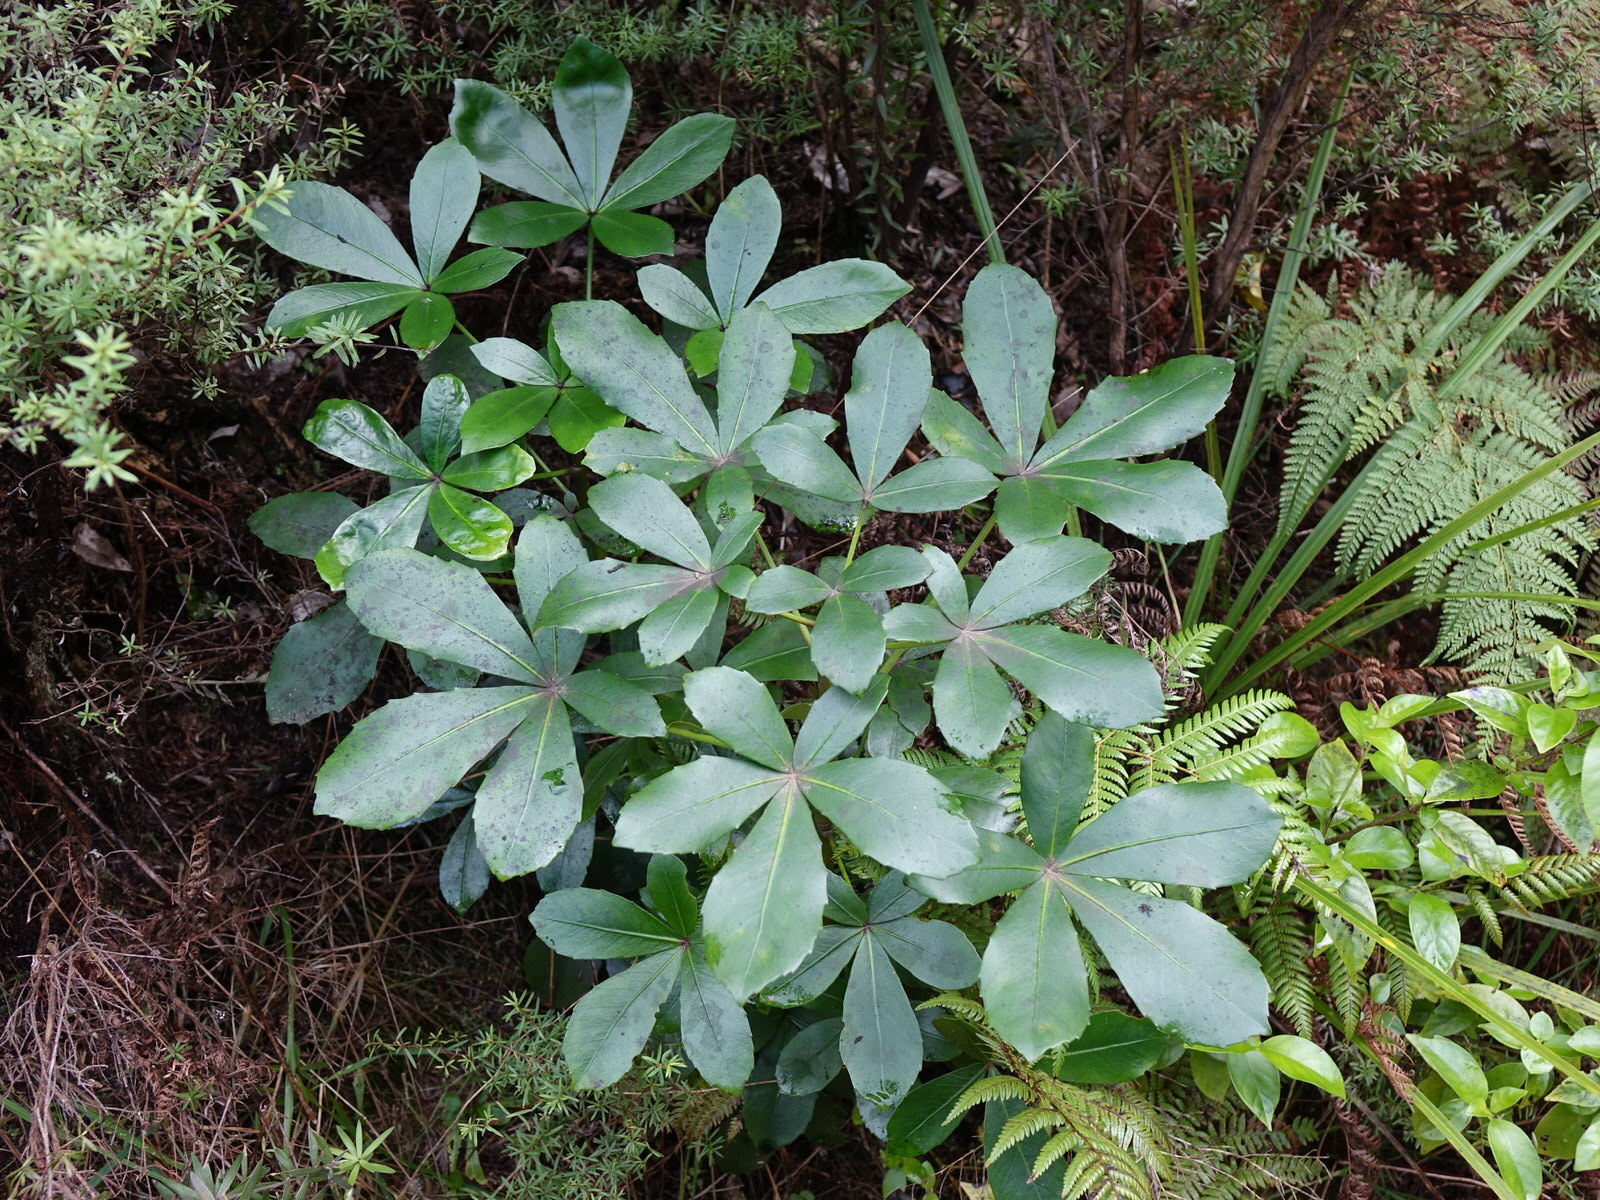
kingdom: Plantae
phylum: Tracheophyta
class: Magnoliopsida
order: Apiales
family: Araliaceae
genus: Pseudopanax
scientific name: Pseudopanax lessonii
